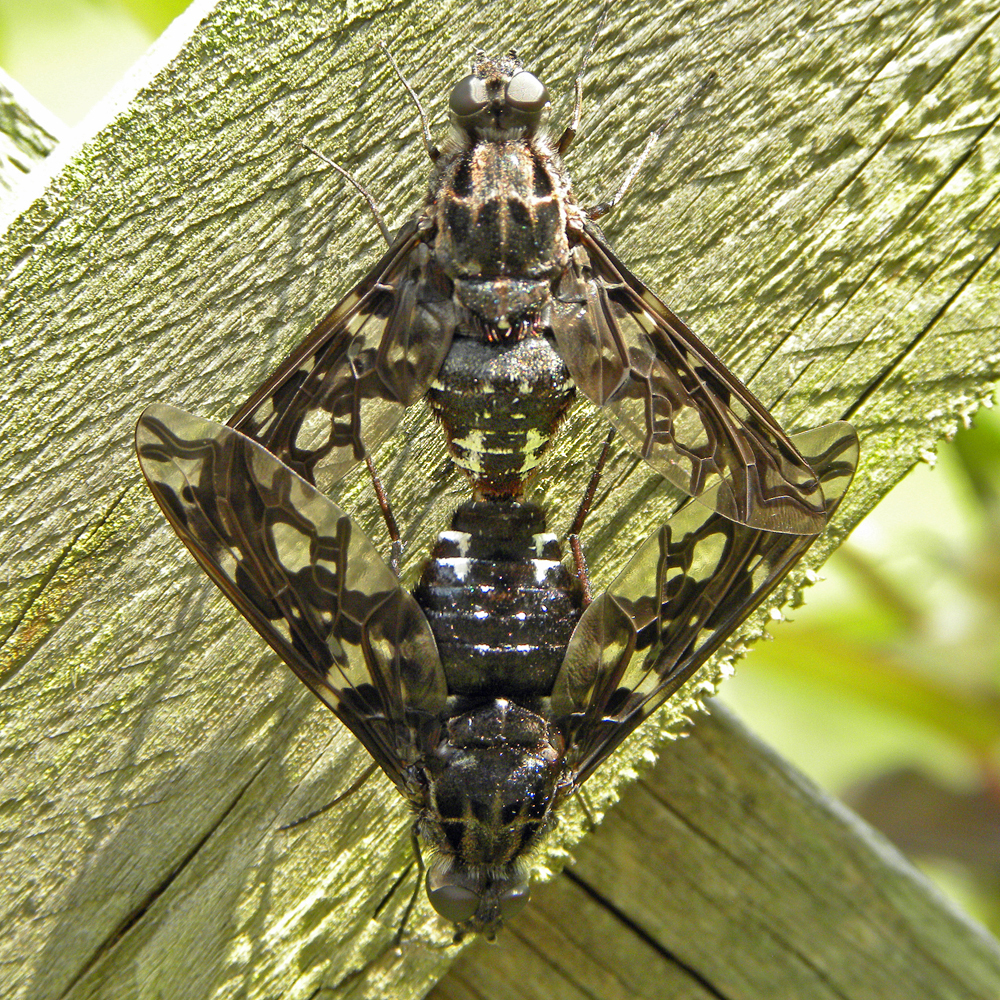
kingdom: Animalia
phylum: Arthropoda
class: Insecta
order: Diptera
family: Bombyliidae
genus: Xenox
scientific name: Xenox tigrinus
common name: Tiger bee fly
